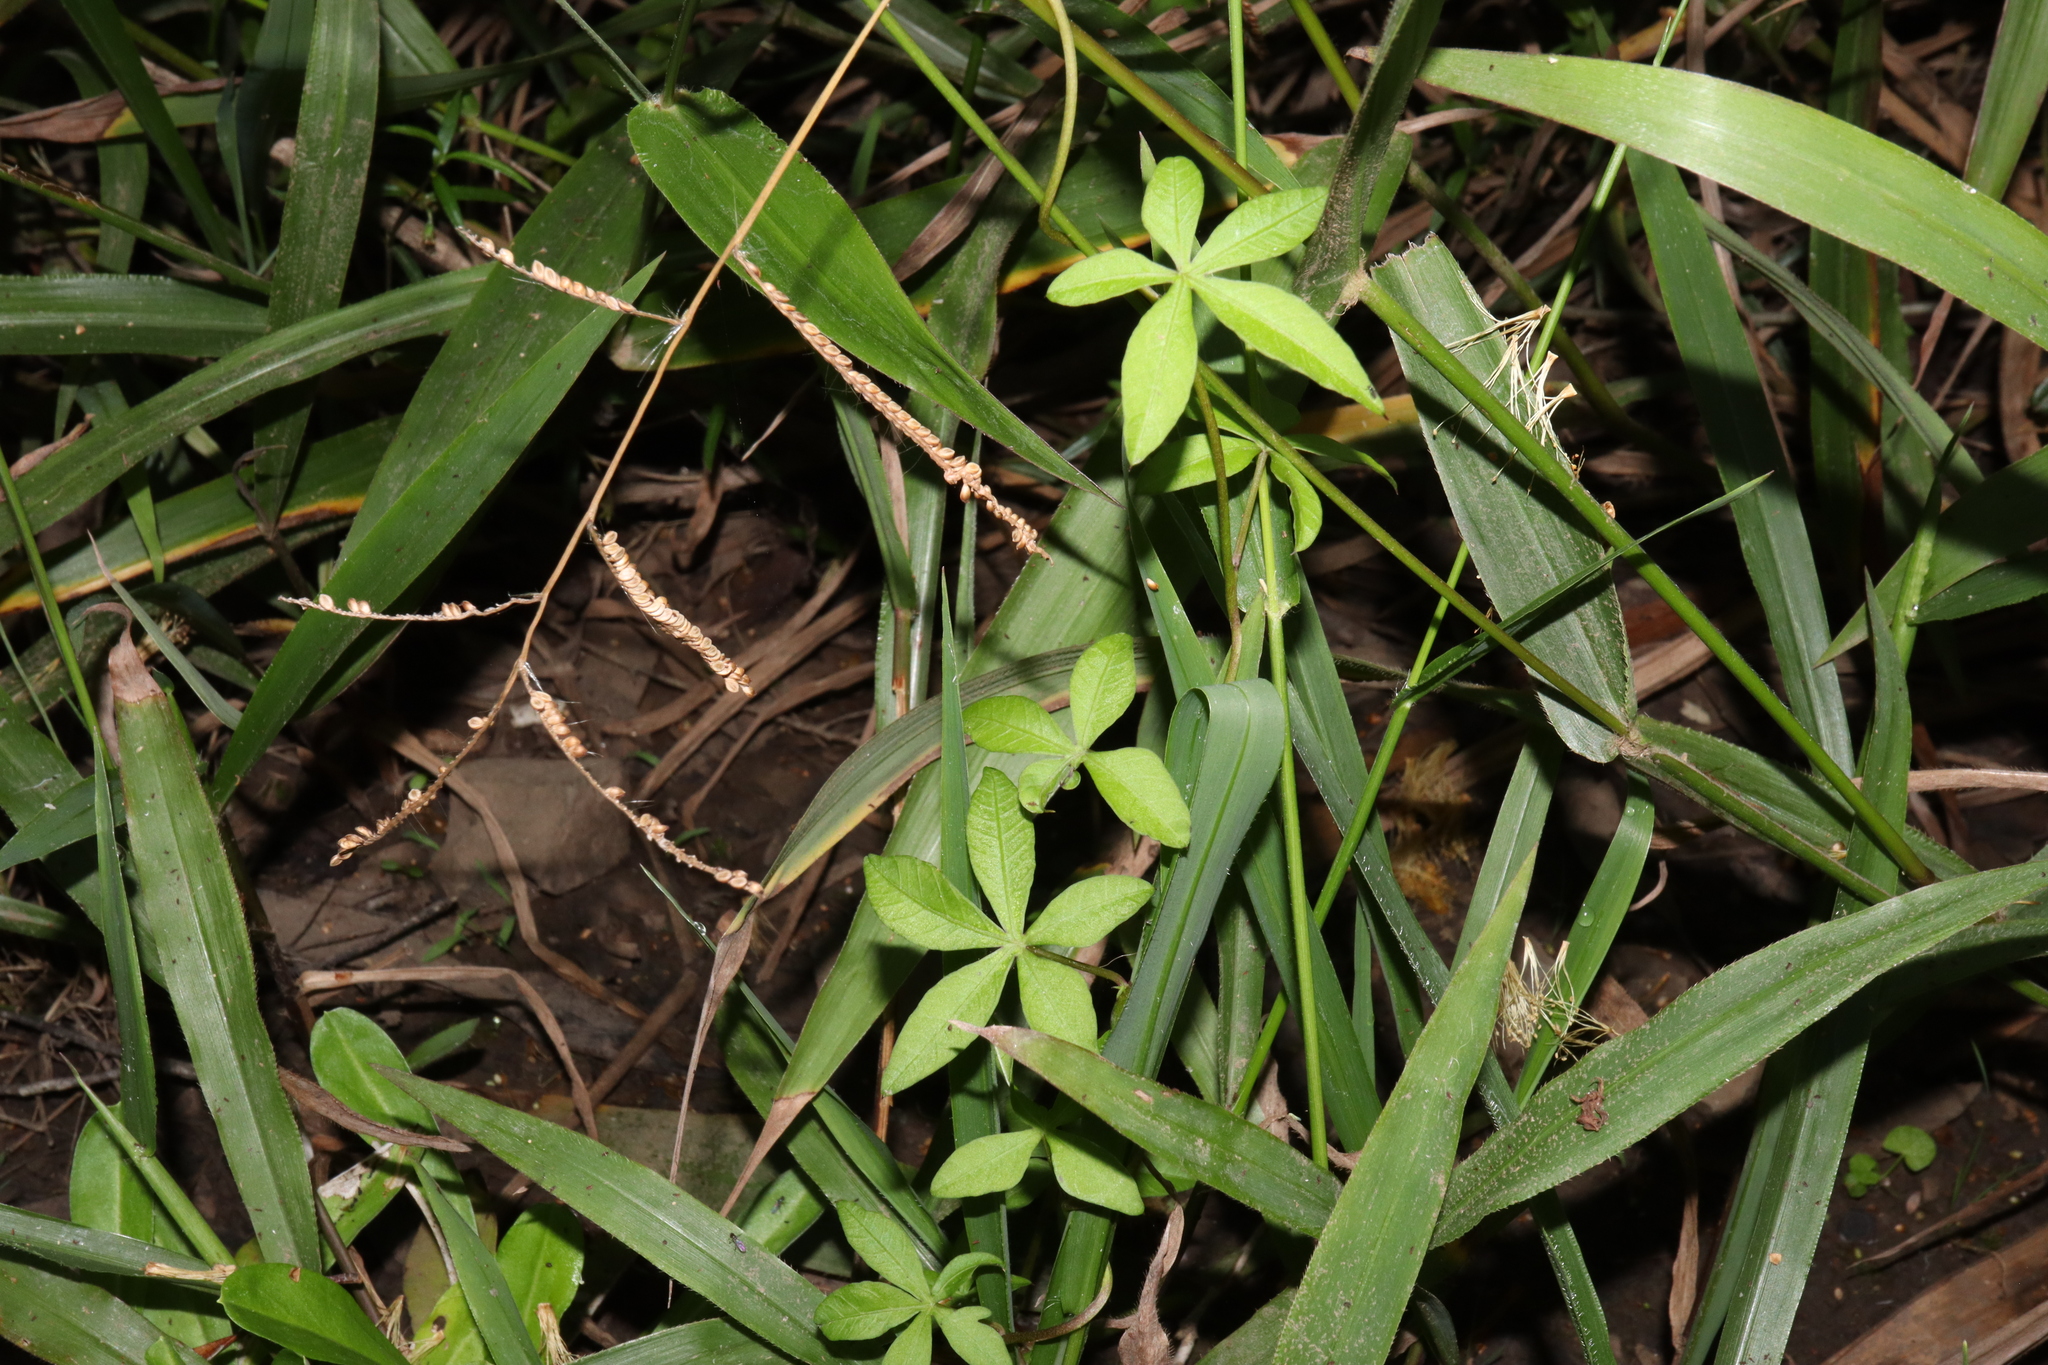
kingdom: Plantae
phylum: Tracheophyta
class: Magnoliopsida
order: Solanales
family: Convolvulaceae
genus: Ipomoea
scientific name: Ipomoea cairica
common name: Mile a minute vine
